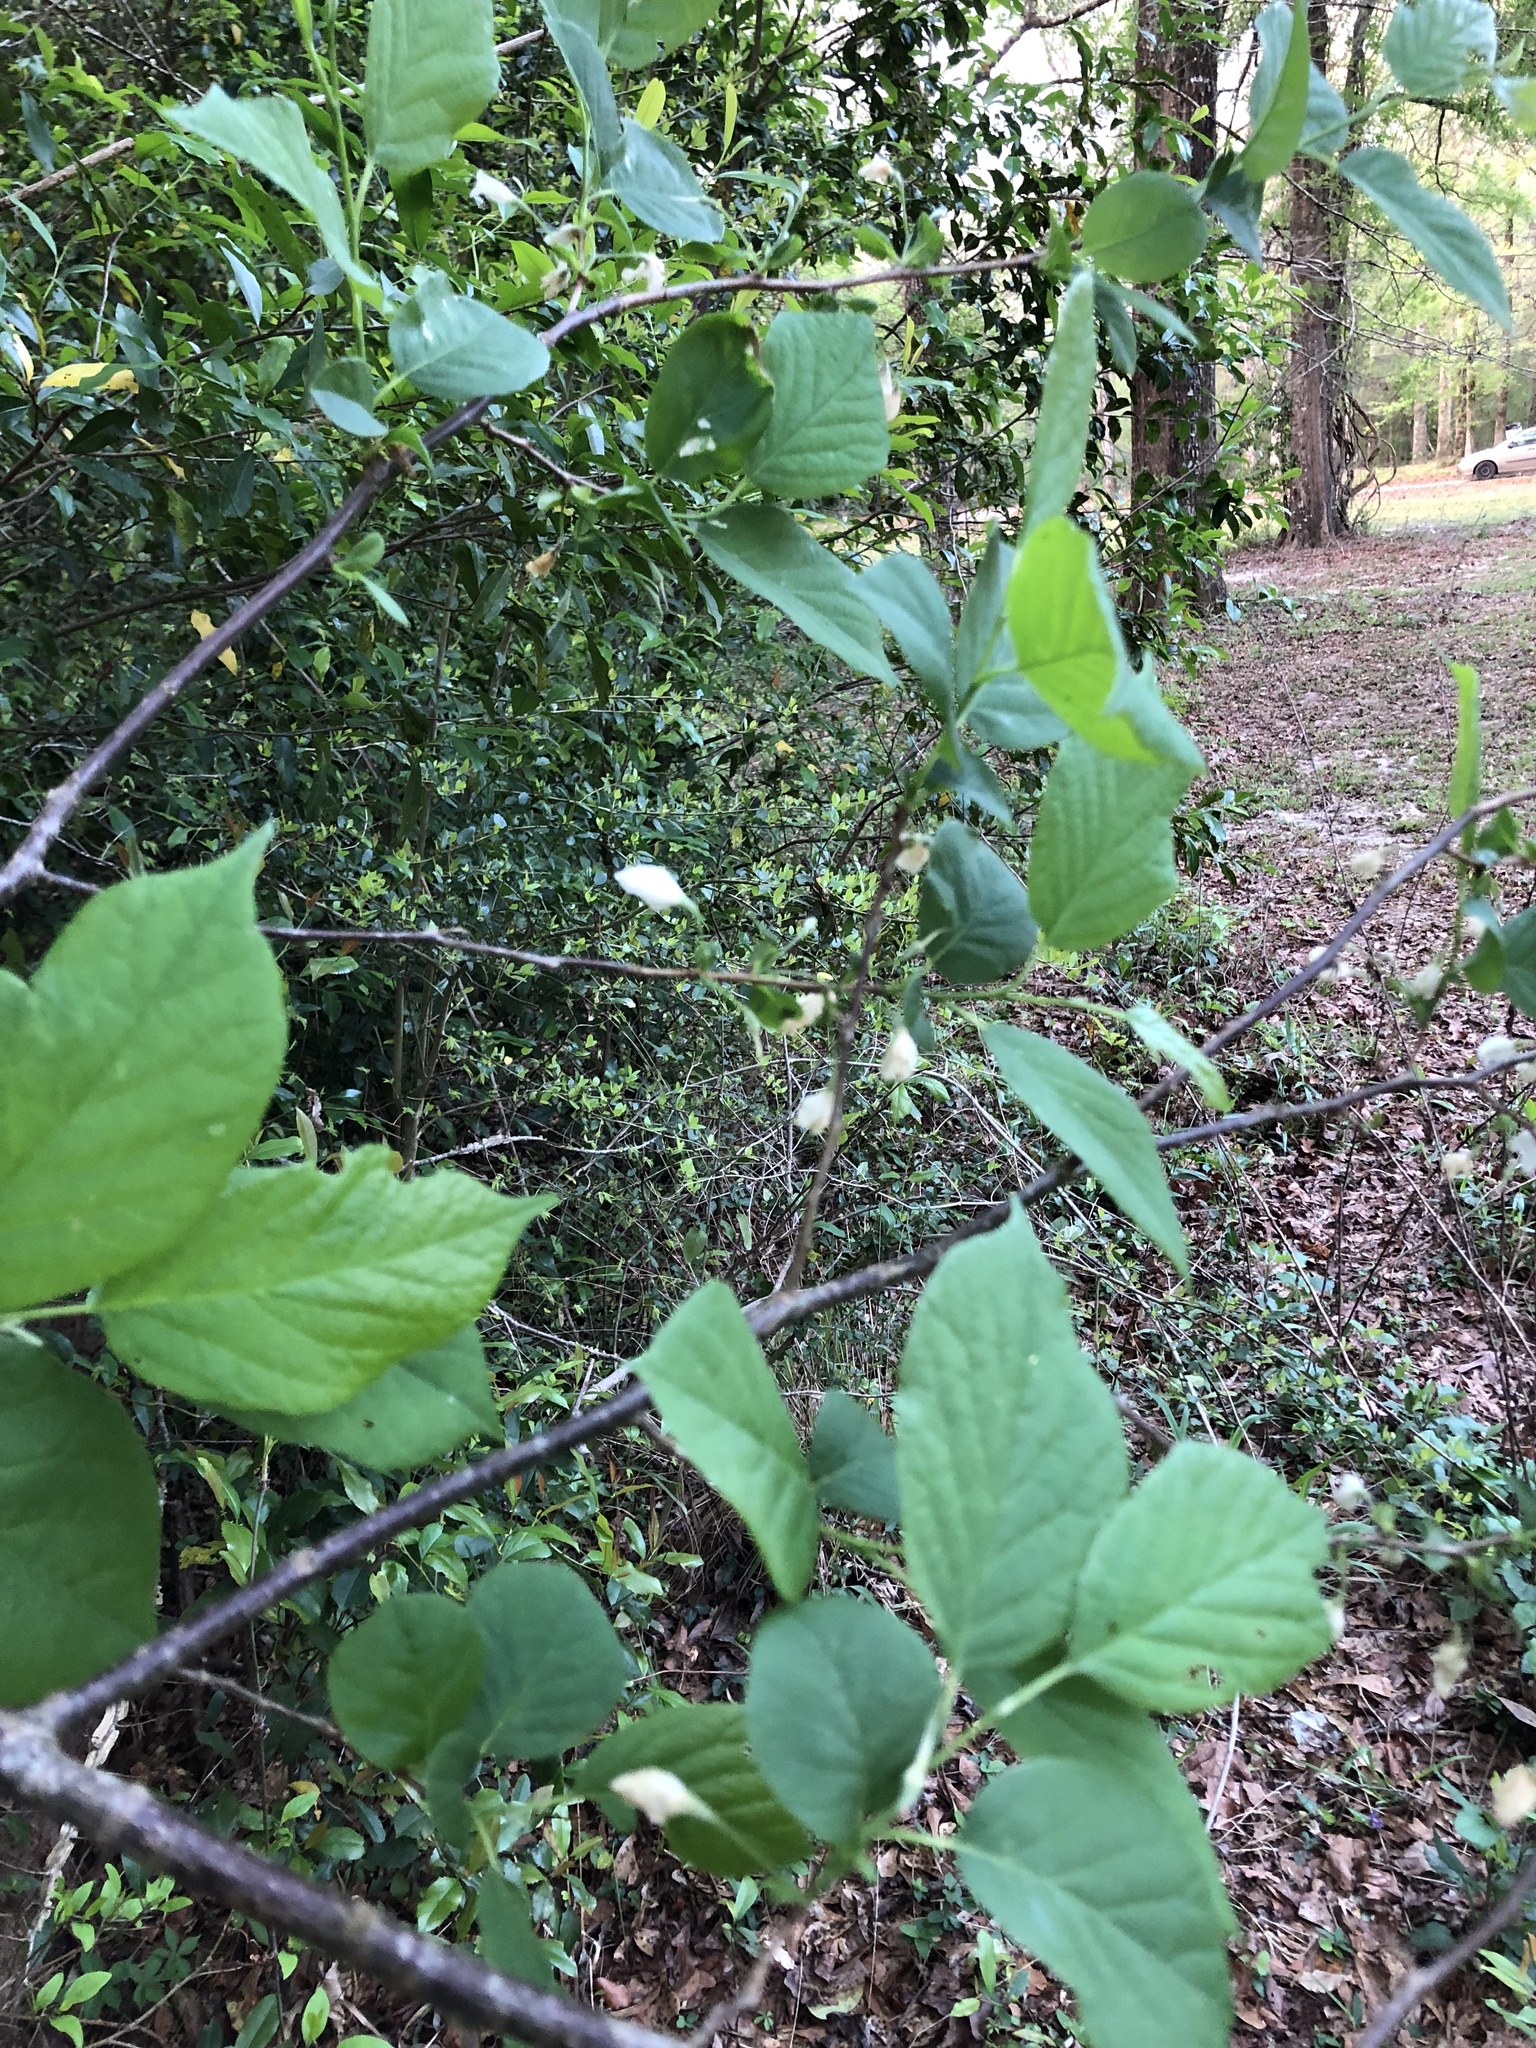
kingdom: Plantae
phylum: Tracheophyta
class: Magnoliopsida
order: Ericales
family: Styracaceae
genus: Halesia
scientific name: Halesia diptera
